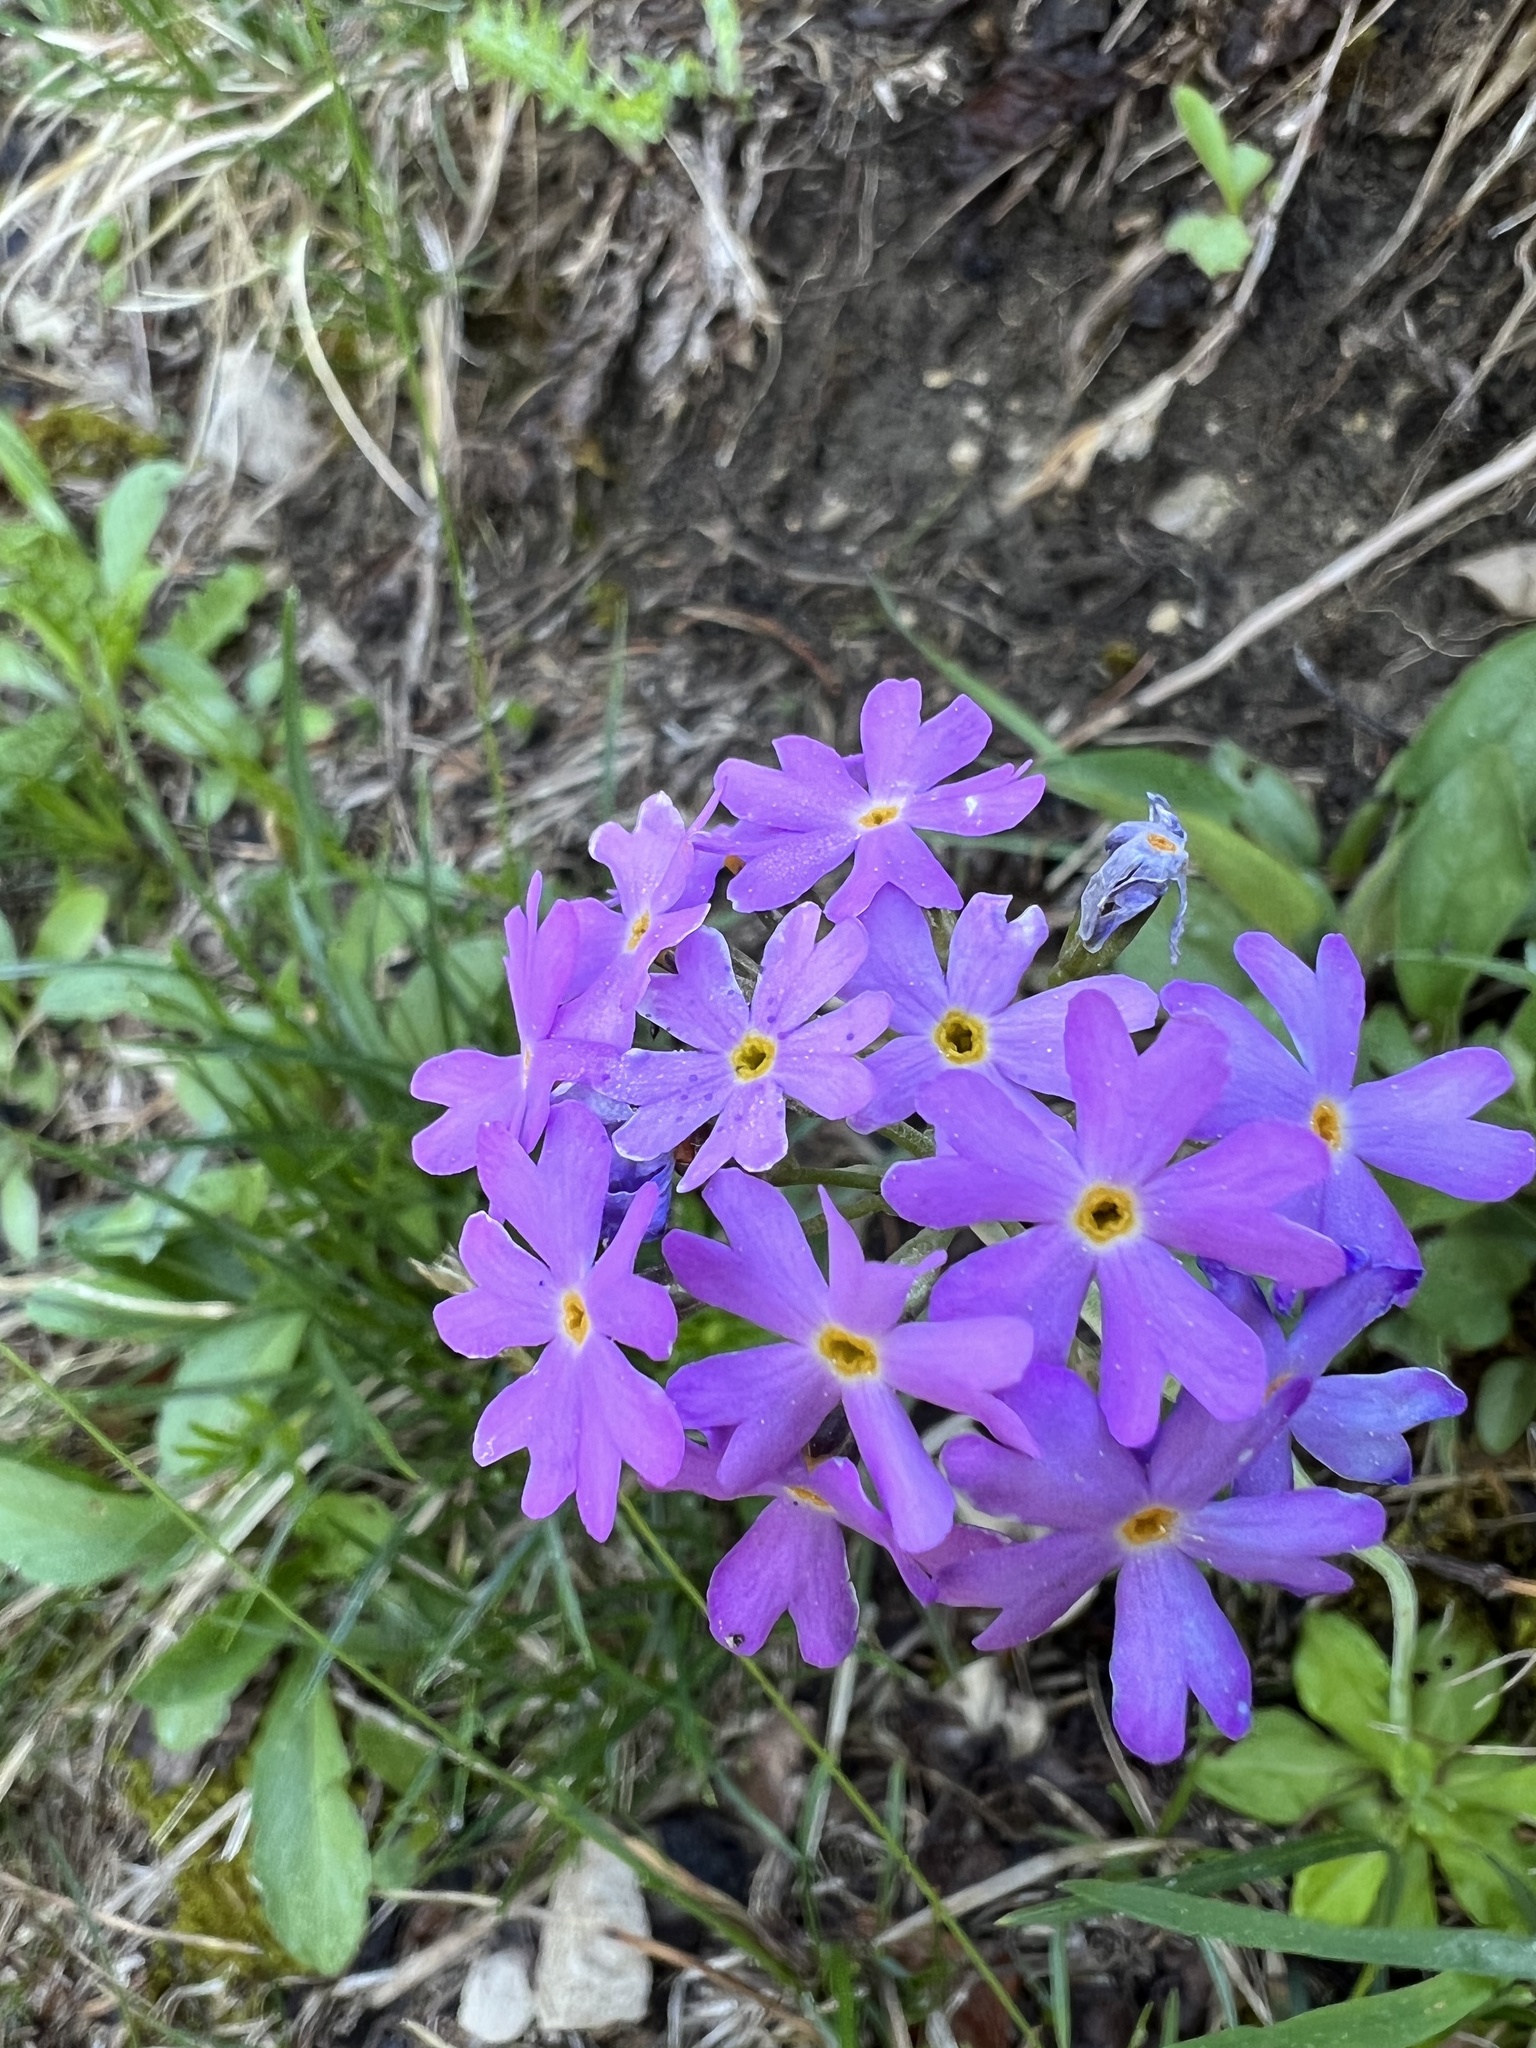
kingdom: Plantae
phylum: Tracheophyta
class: Magnoliopsida
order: Ericales
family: Primulaceae
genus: Primula
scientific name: Primula farinosa
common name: Bird's-eye primrose
